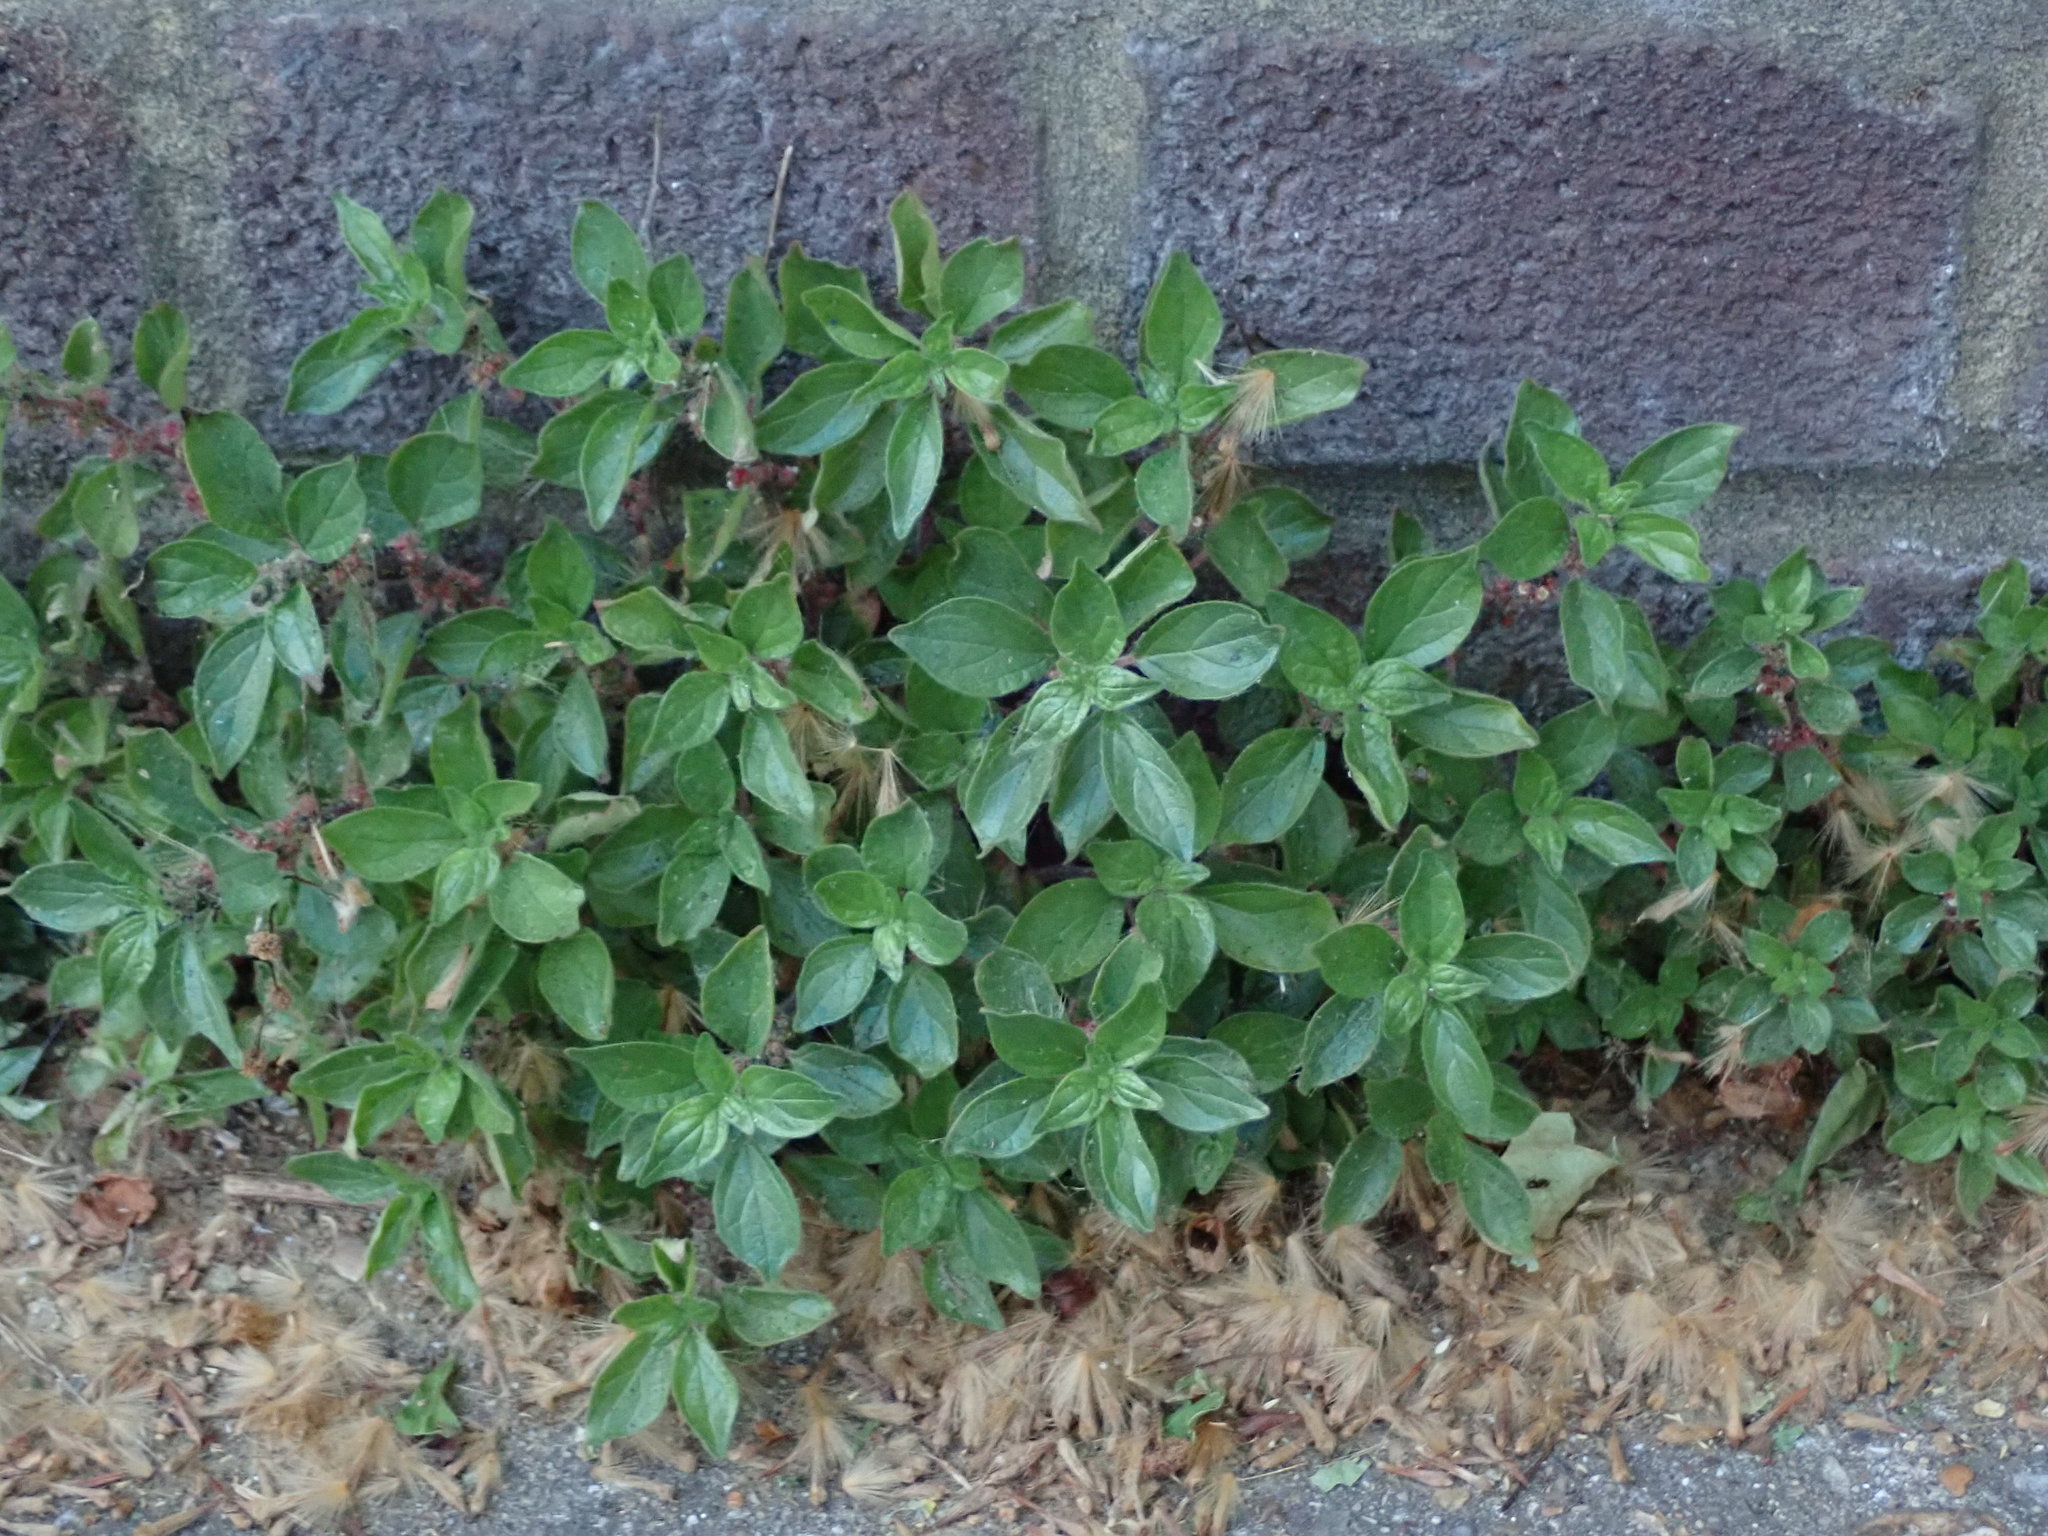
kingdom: Plantae
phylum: Tracheophyta
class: Magnoliopsida
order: Rosales
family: Urticaceae
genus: Parietaria
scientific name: Parietaria judaica
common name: Pellitory-of-the-wall
